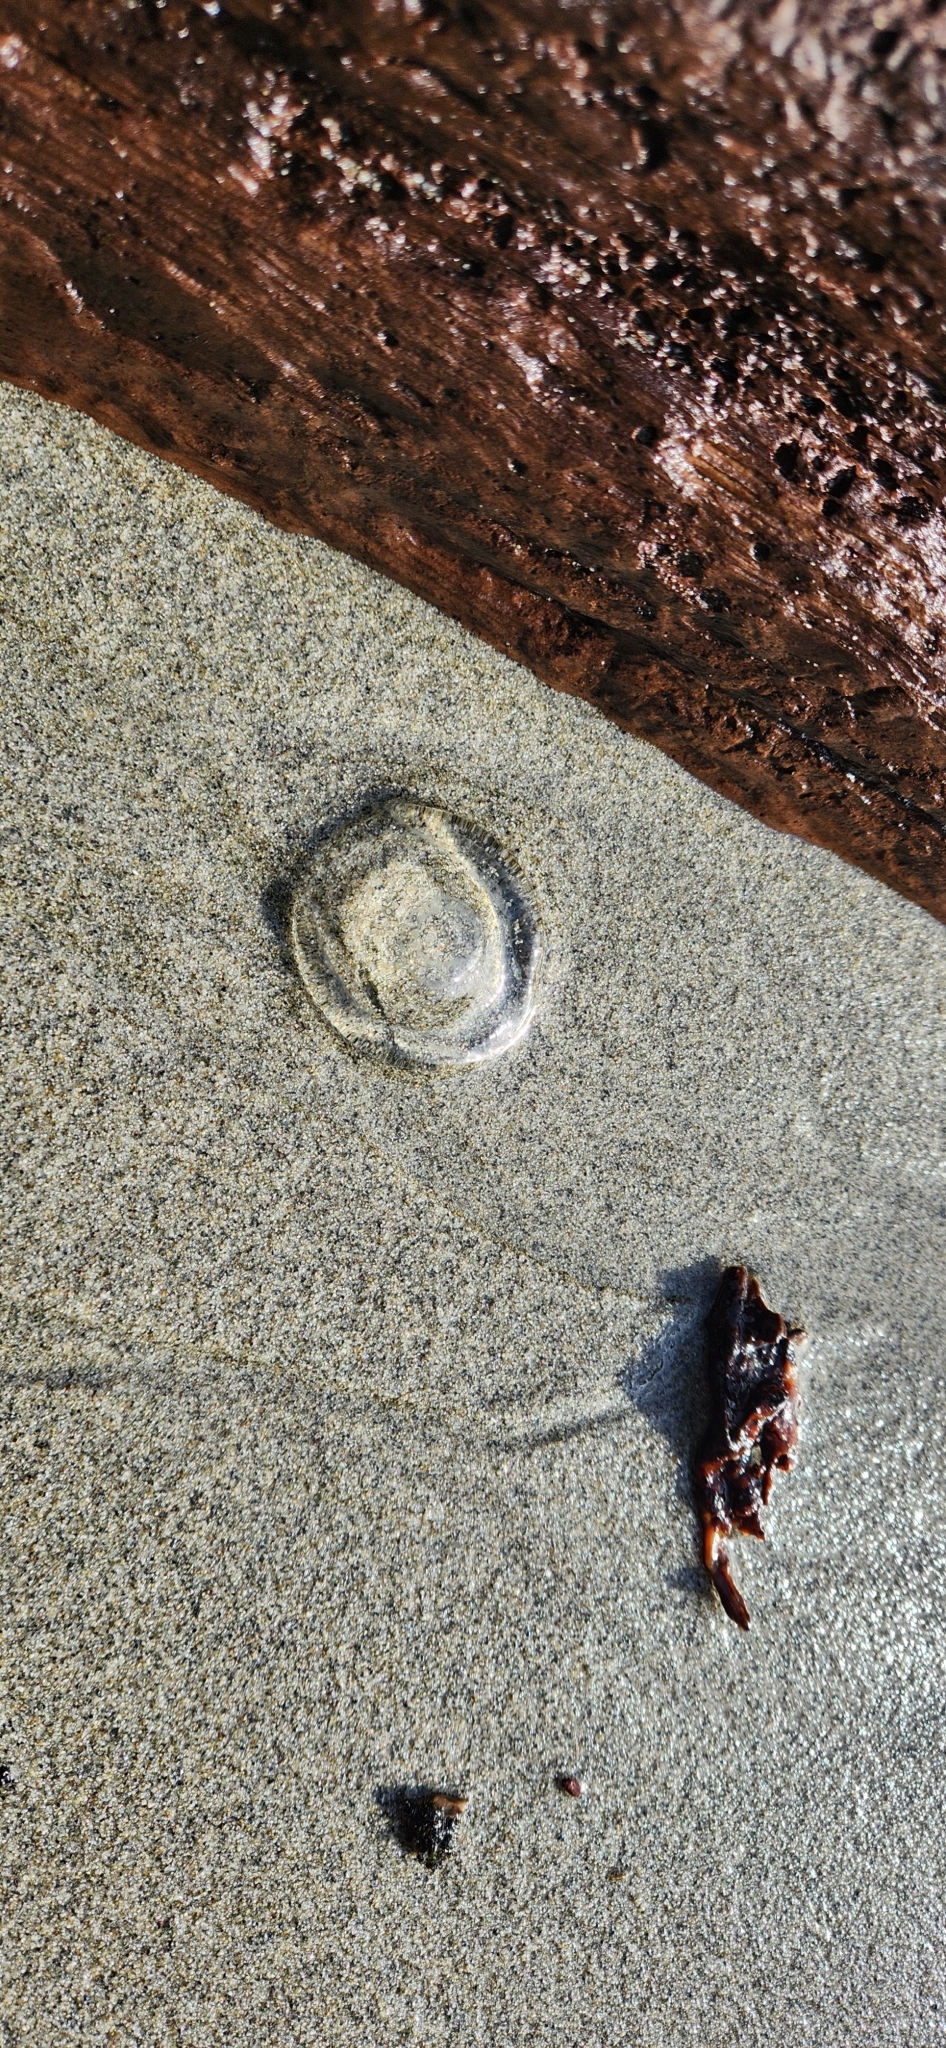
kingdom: Animalia
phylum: Cnidaria
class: Hydrozoa
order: Leptothecata
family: Aequoreidae
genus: Aequorea
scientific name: Aequorea victoria
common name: Water jellyfish
